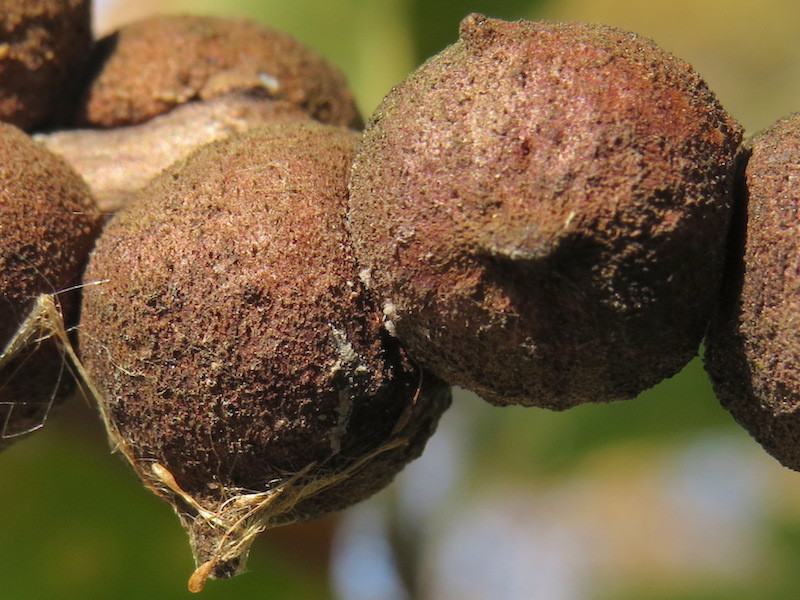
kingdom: Animalia
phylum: Arthropoda
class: Insecta
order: Hymenoptera
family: Cynipidae
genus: Disholcaspis
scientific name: Disholcaspis
